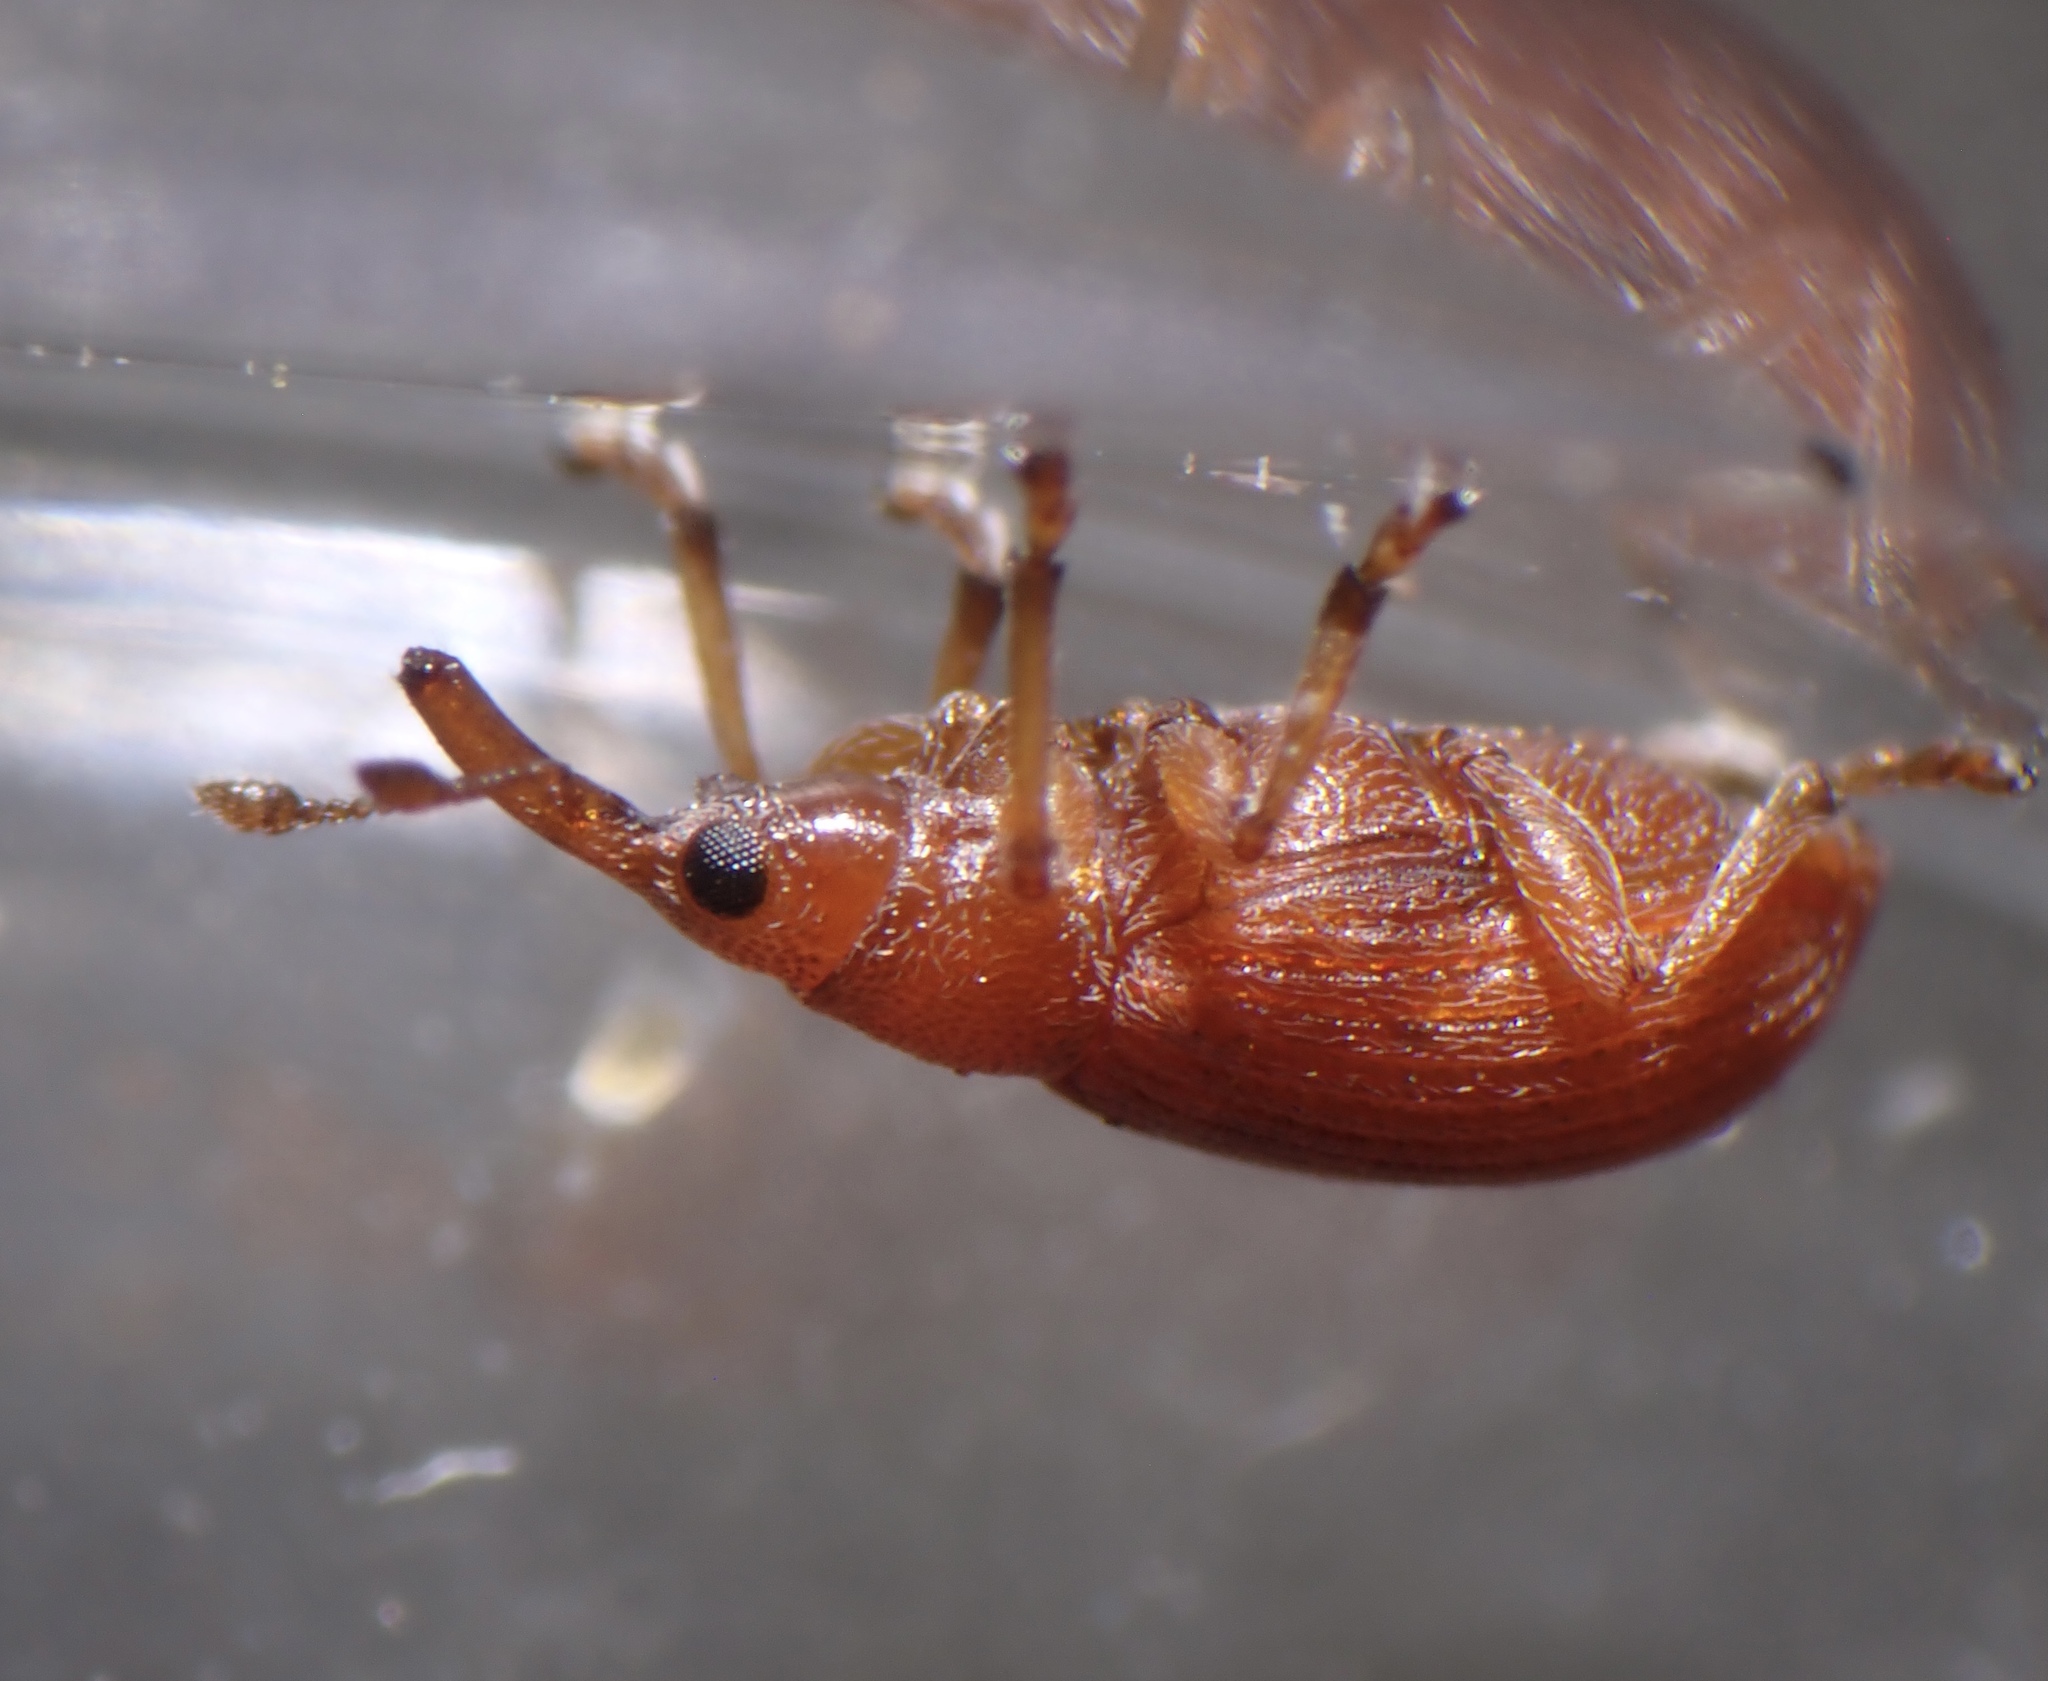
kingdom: Animalia
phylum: Arthropoda
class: Insecta
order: Coleoptera
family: Apionidae
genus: Apion
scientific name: Apion haematodes
